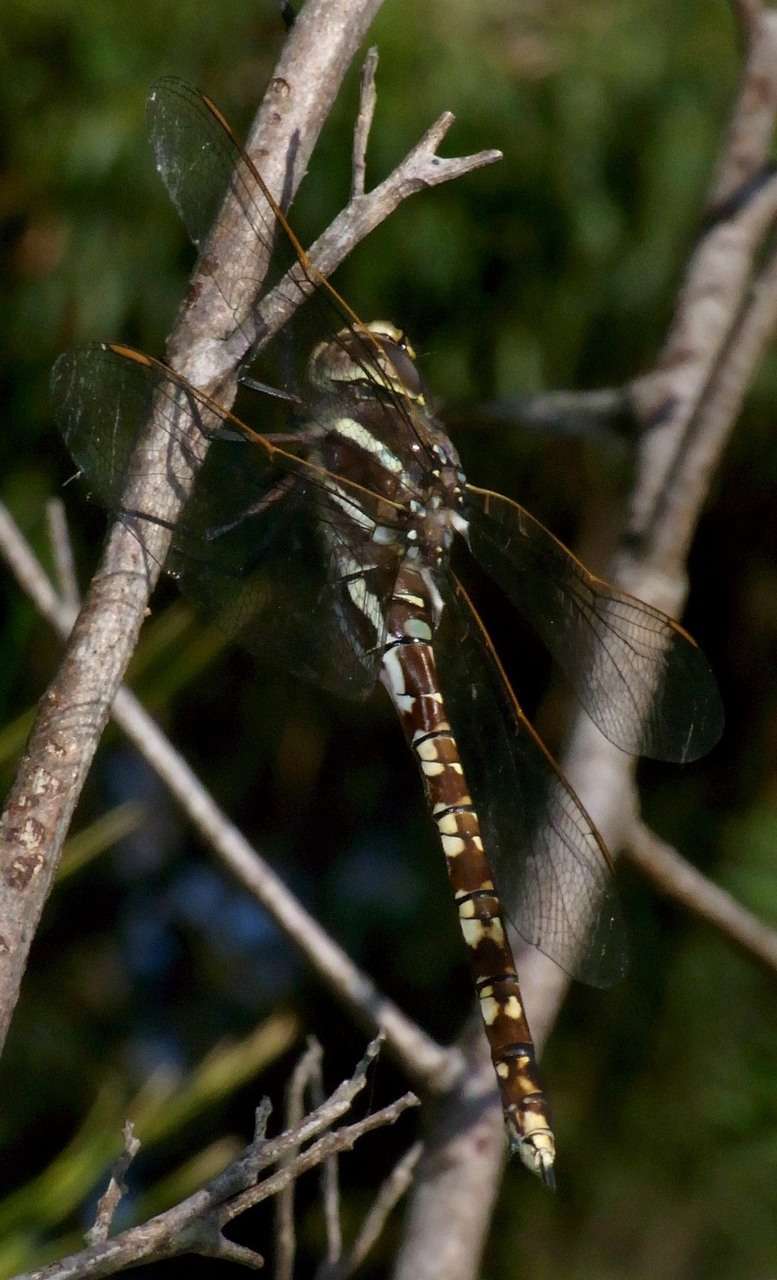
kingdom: Animalia
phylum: Arthropoda
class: Insecta
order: Odonata
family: Aeshnidae
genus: Aeshna
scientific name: Aeshna brevistyla
